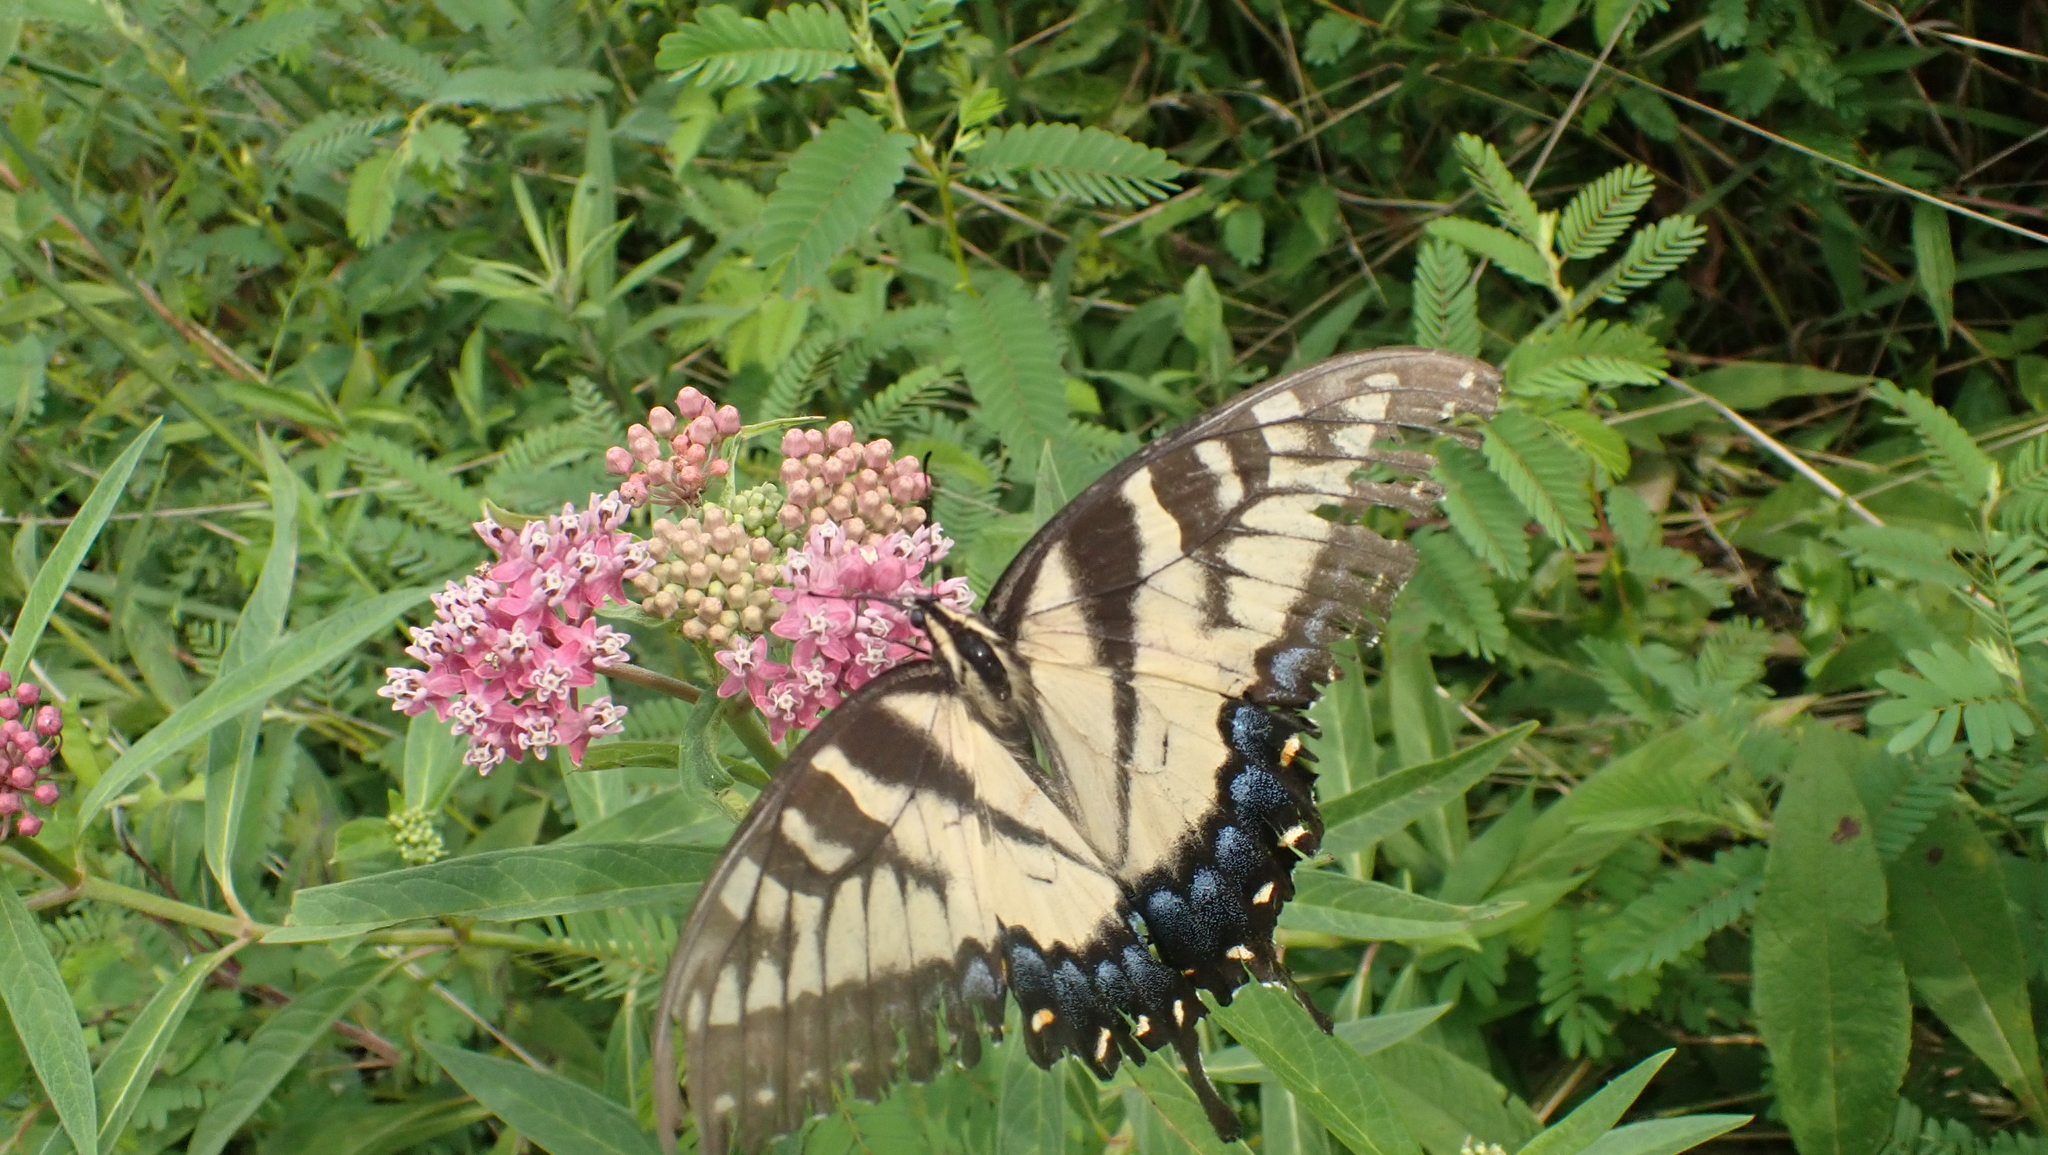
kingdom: Animalia
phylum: Arthropoda
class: Insecta
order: Lepidoptera
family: Papilionidae
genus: Papilio
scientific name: Papilio glaucus
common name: Tiger swallowtail
